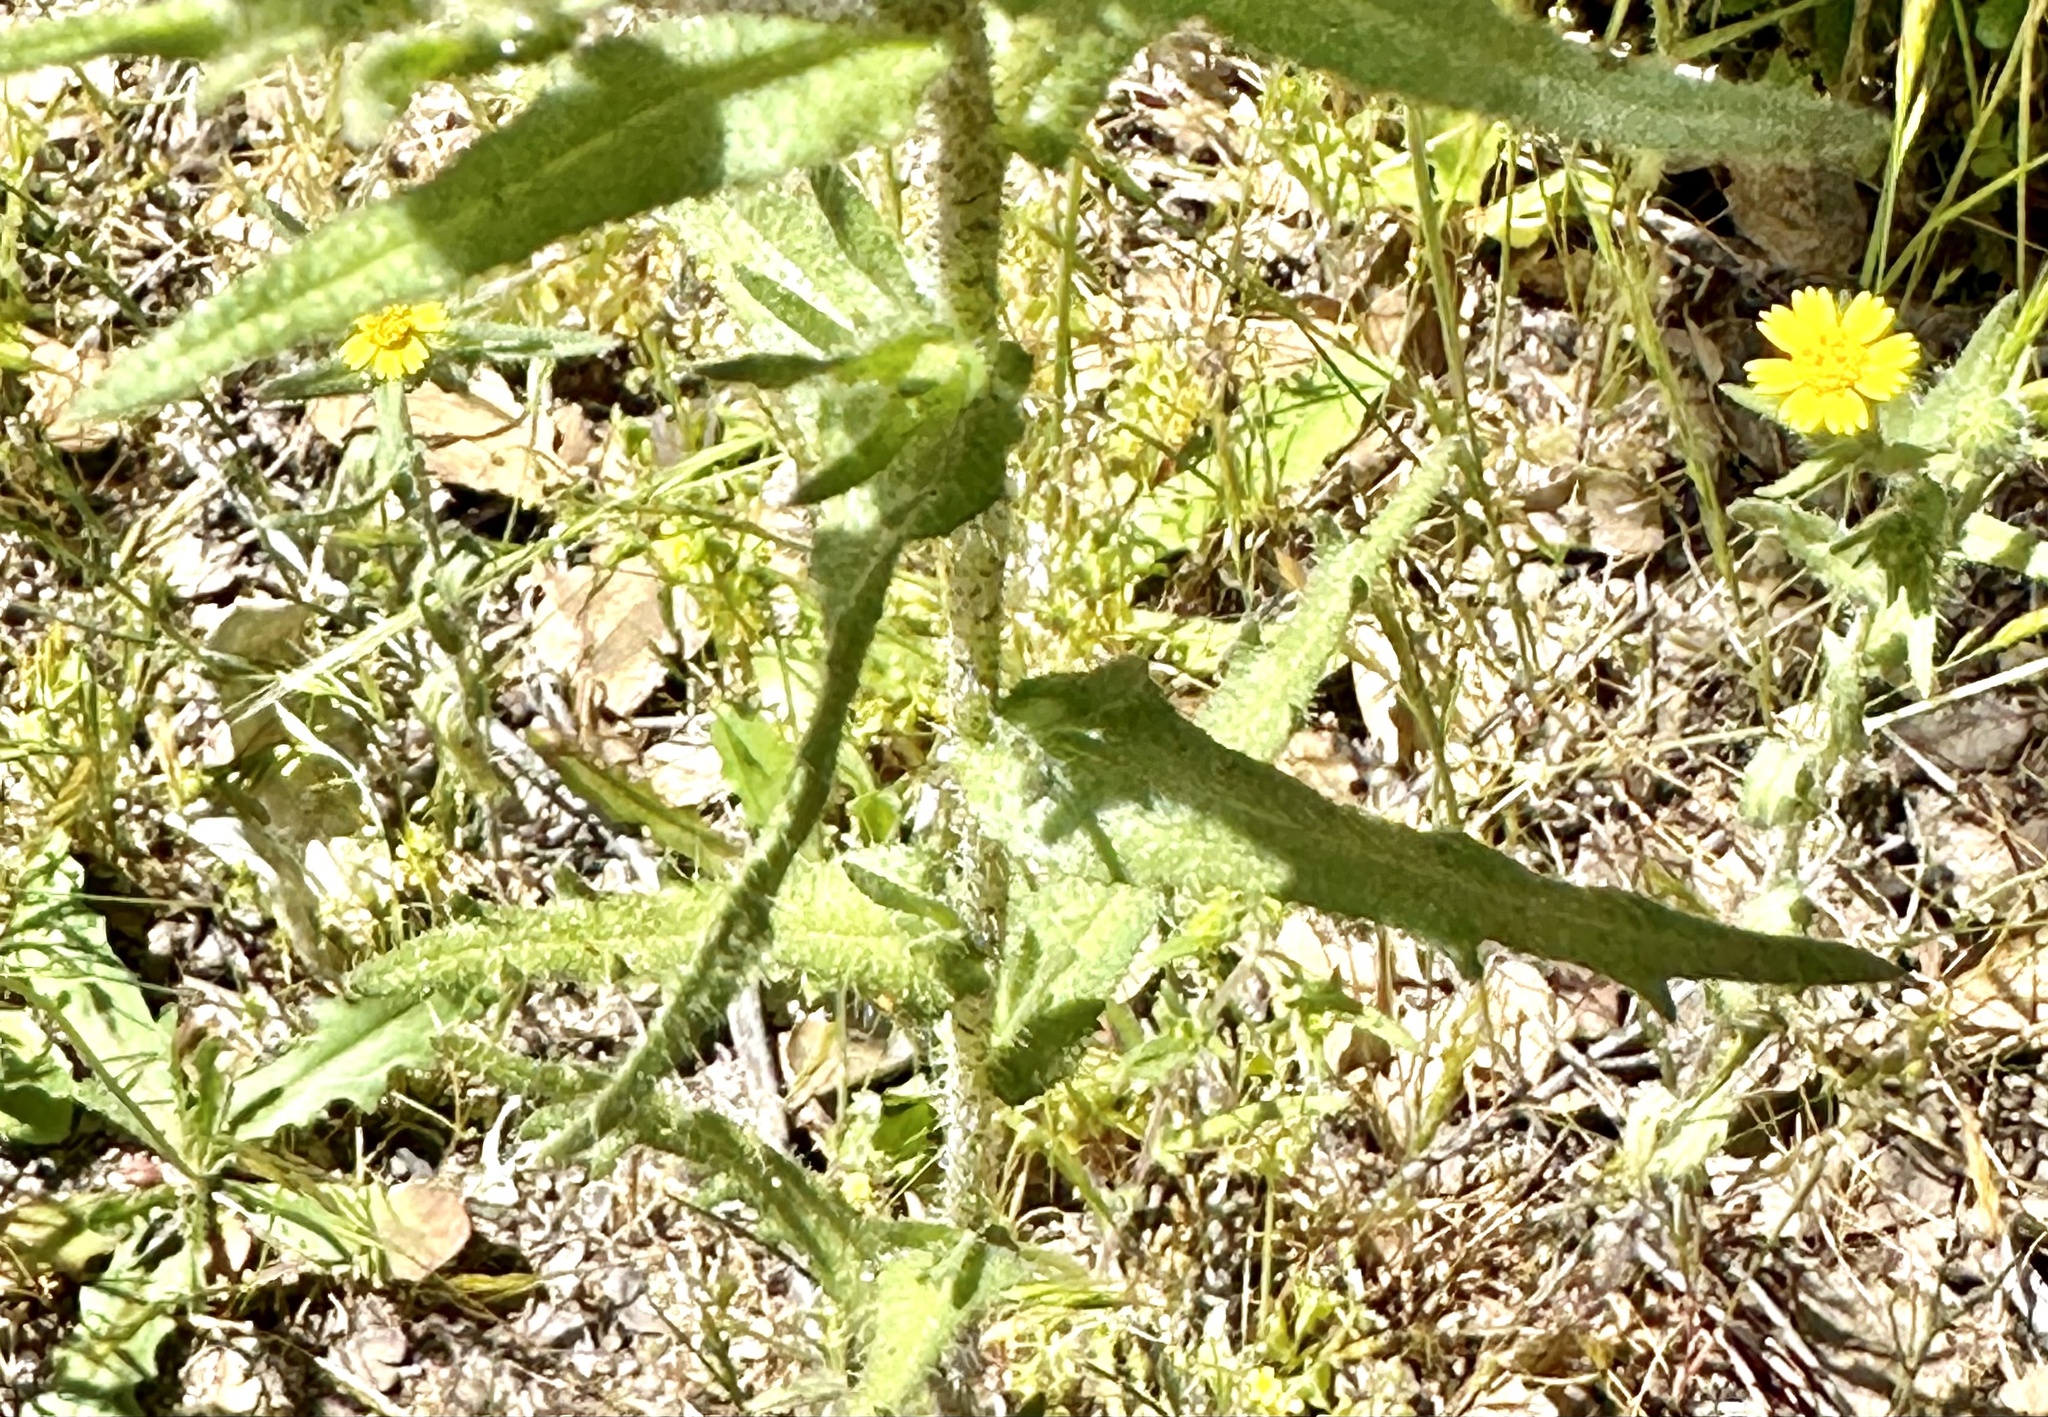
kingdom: Plantae
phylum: Tracheophyta
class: Magnoliopsida
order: Asterales
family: Asteraceae
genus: Layia
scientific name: Layia hieracioides
